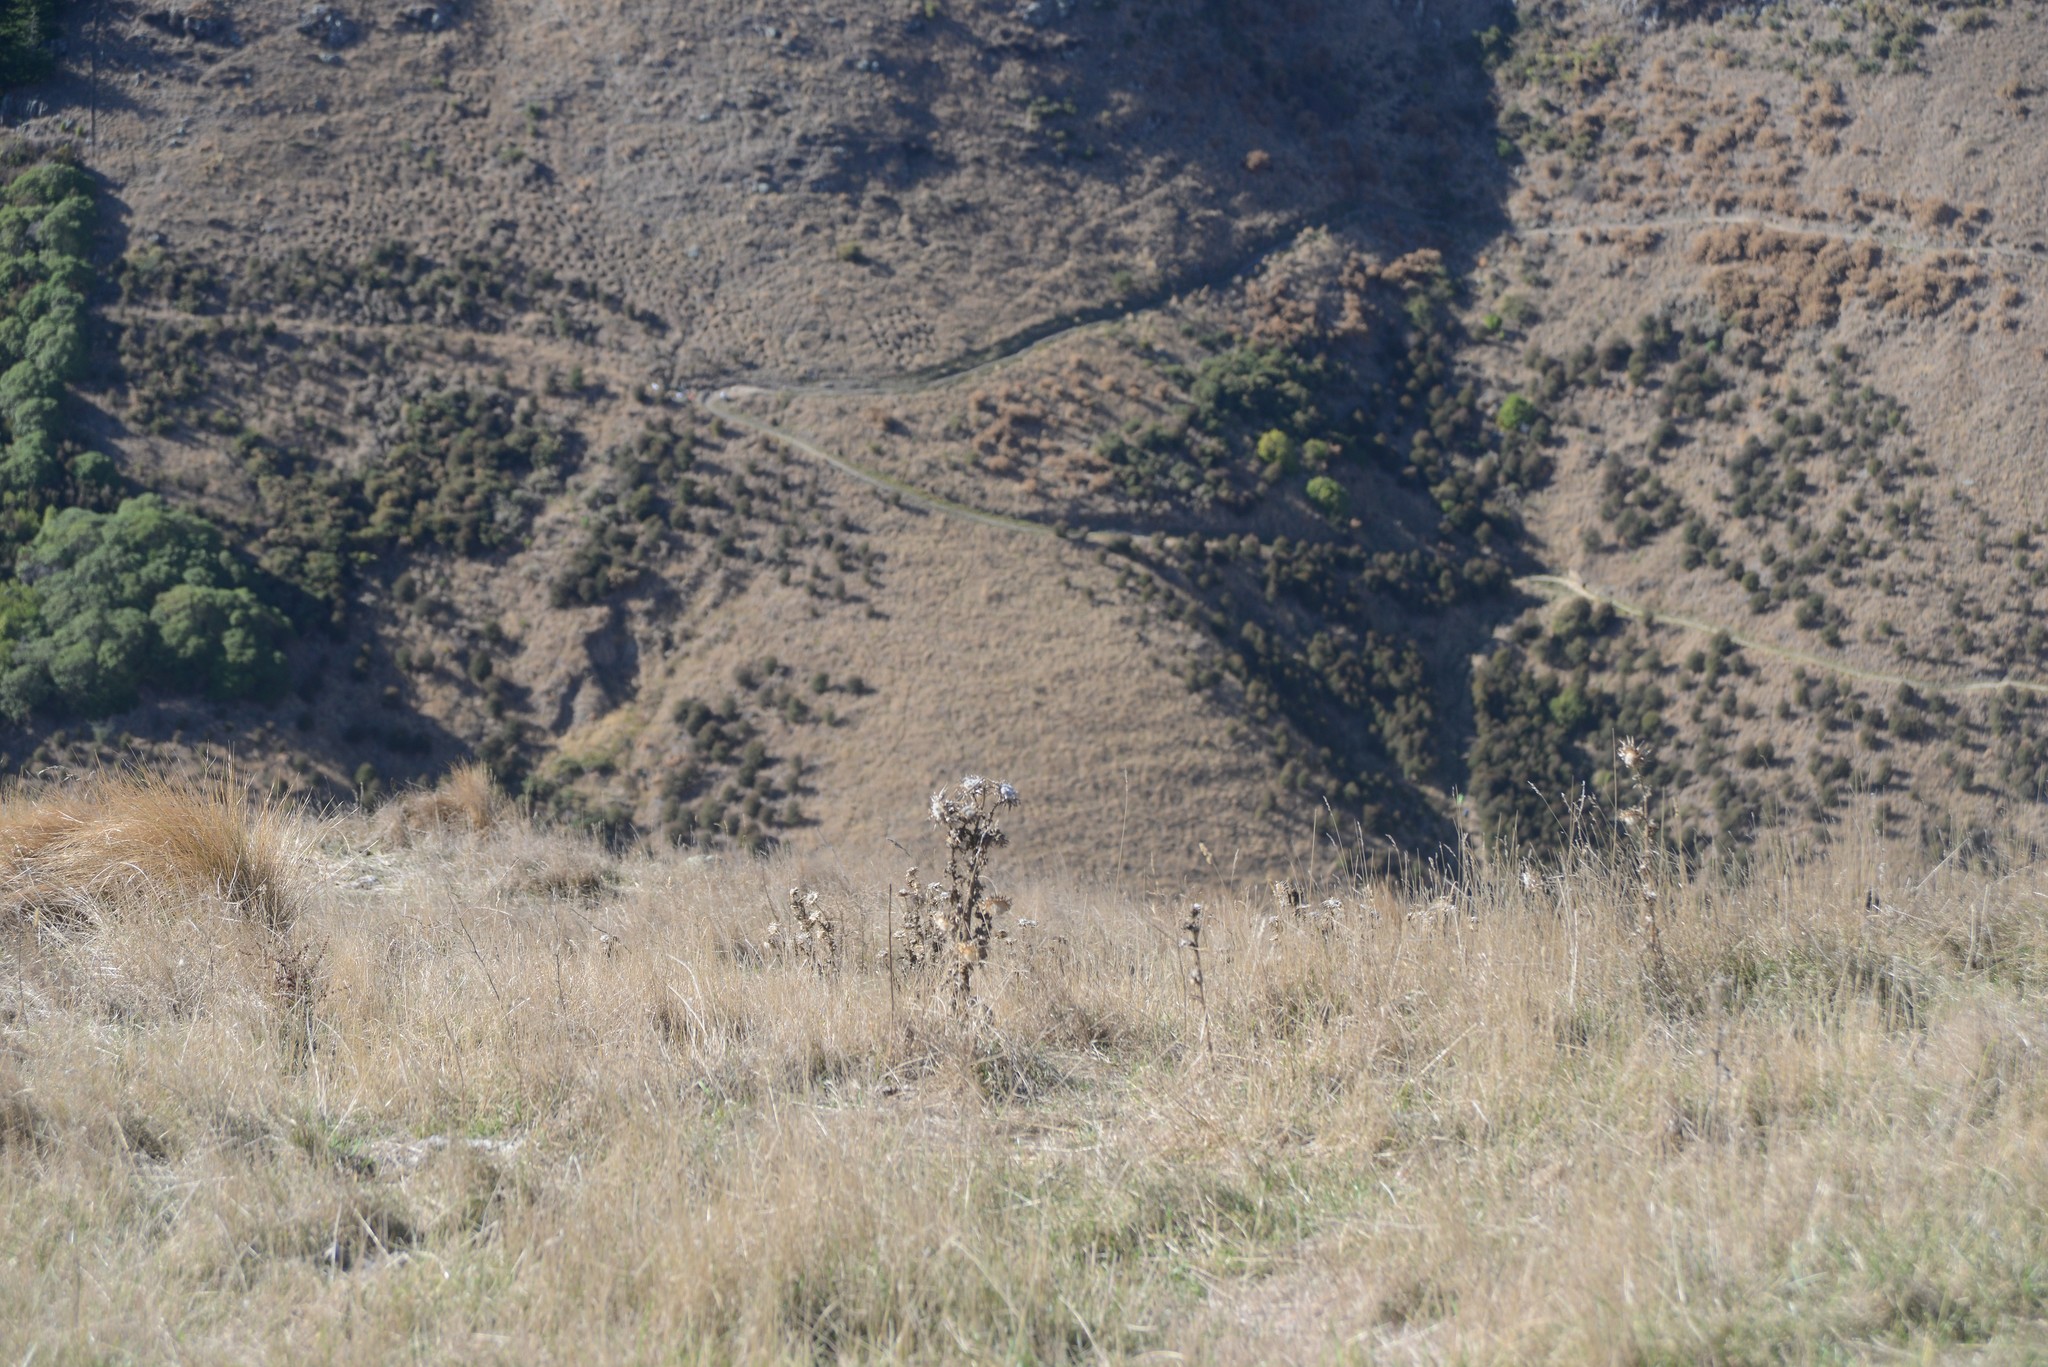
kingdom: Plantae
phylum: Tracheophyta
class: Magnoliopsida
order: Asterales
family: Asteraceae
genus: Silybum
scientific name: Silybum marianum
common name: Milk thistle
